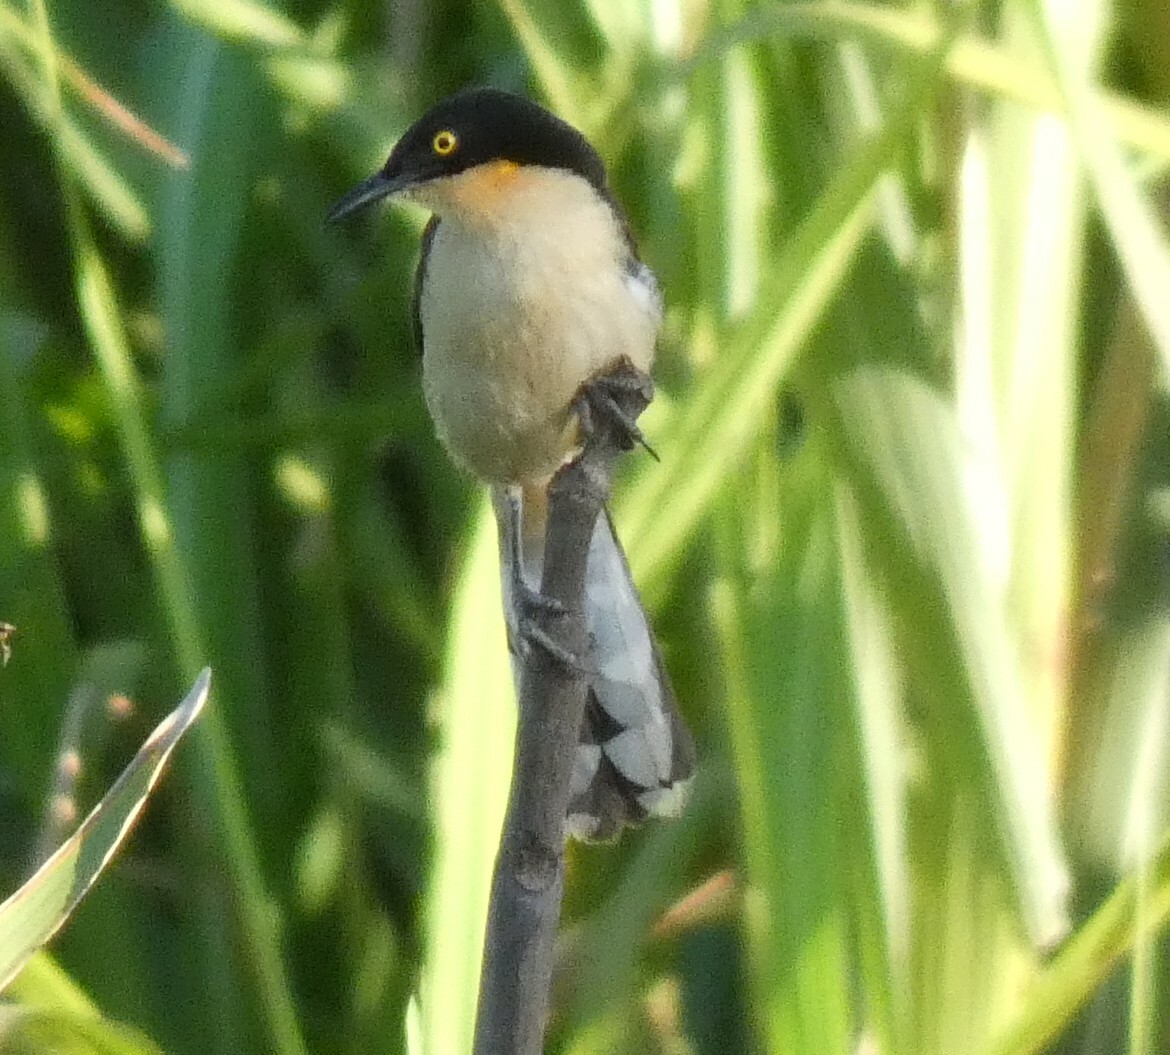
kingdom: Animalia
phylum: Chordata
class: Aves
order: Passeriformes
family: Donacobiidae
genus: Donacobius
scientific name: Donacobius atricapilla
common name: Black-capped donacobius
